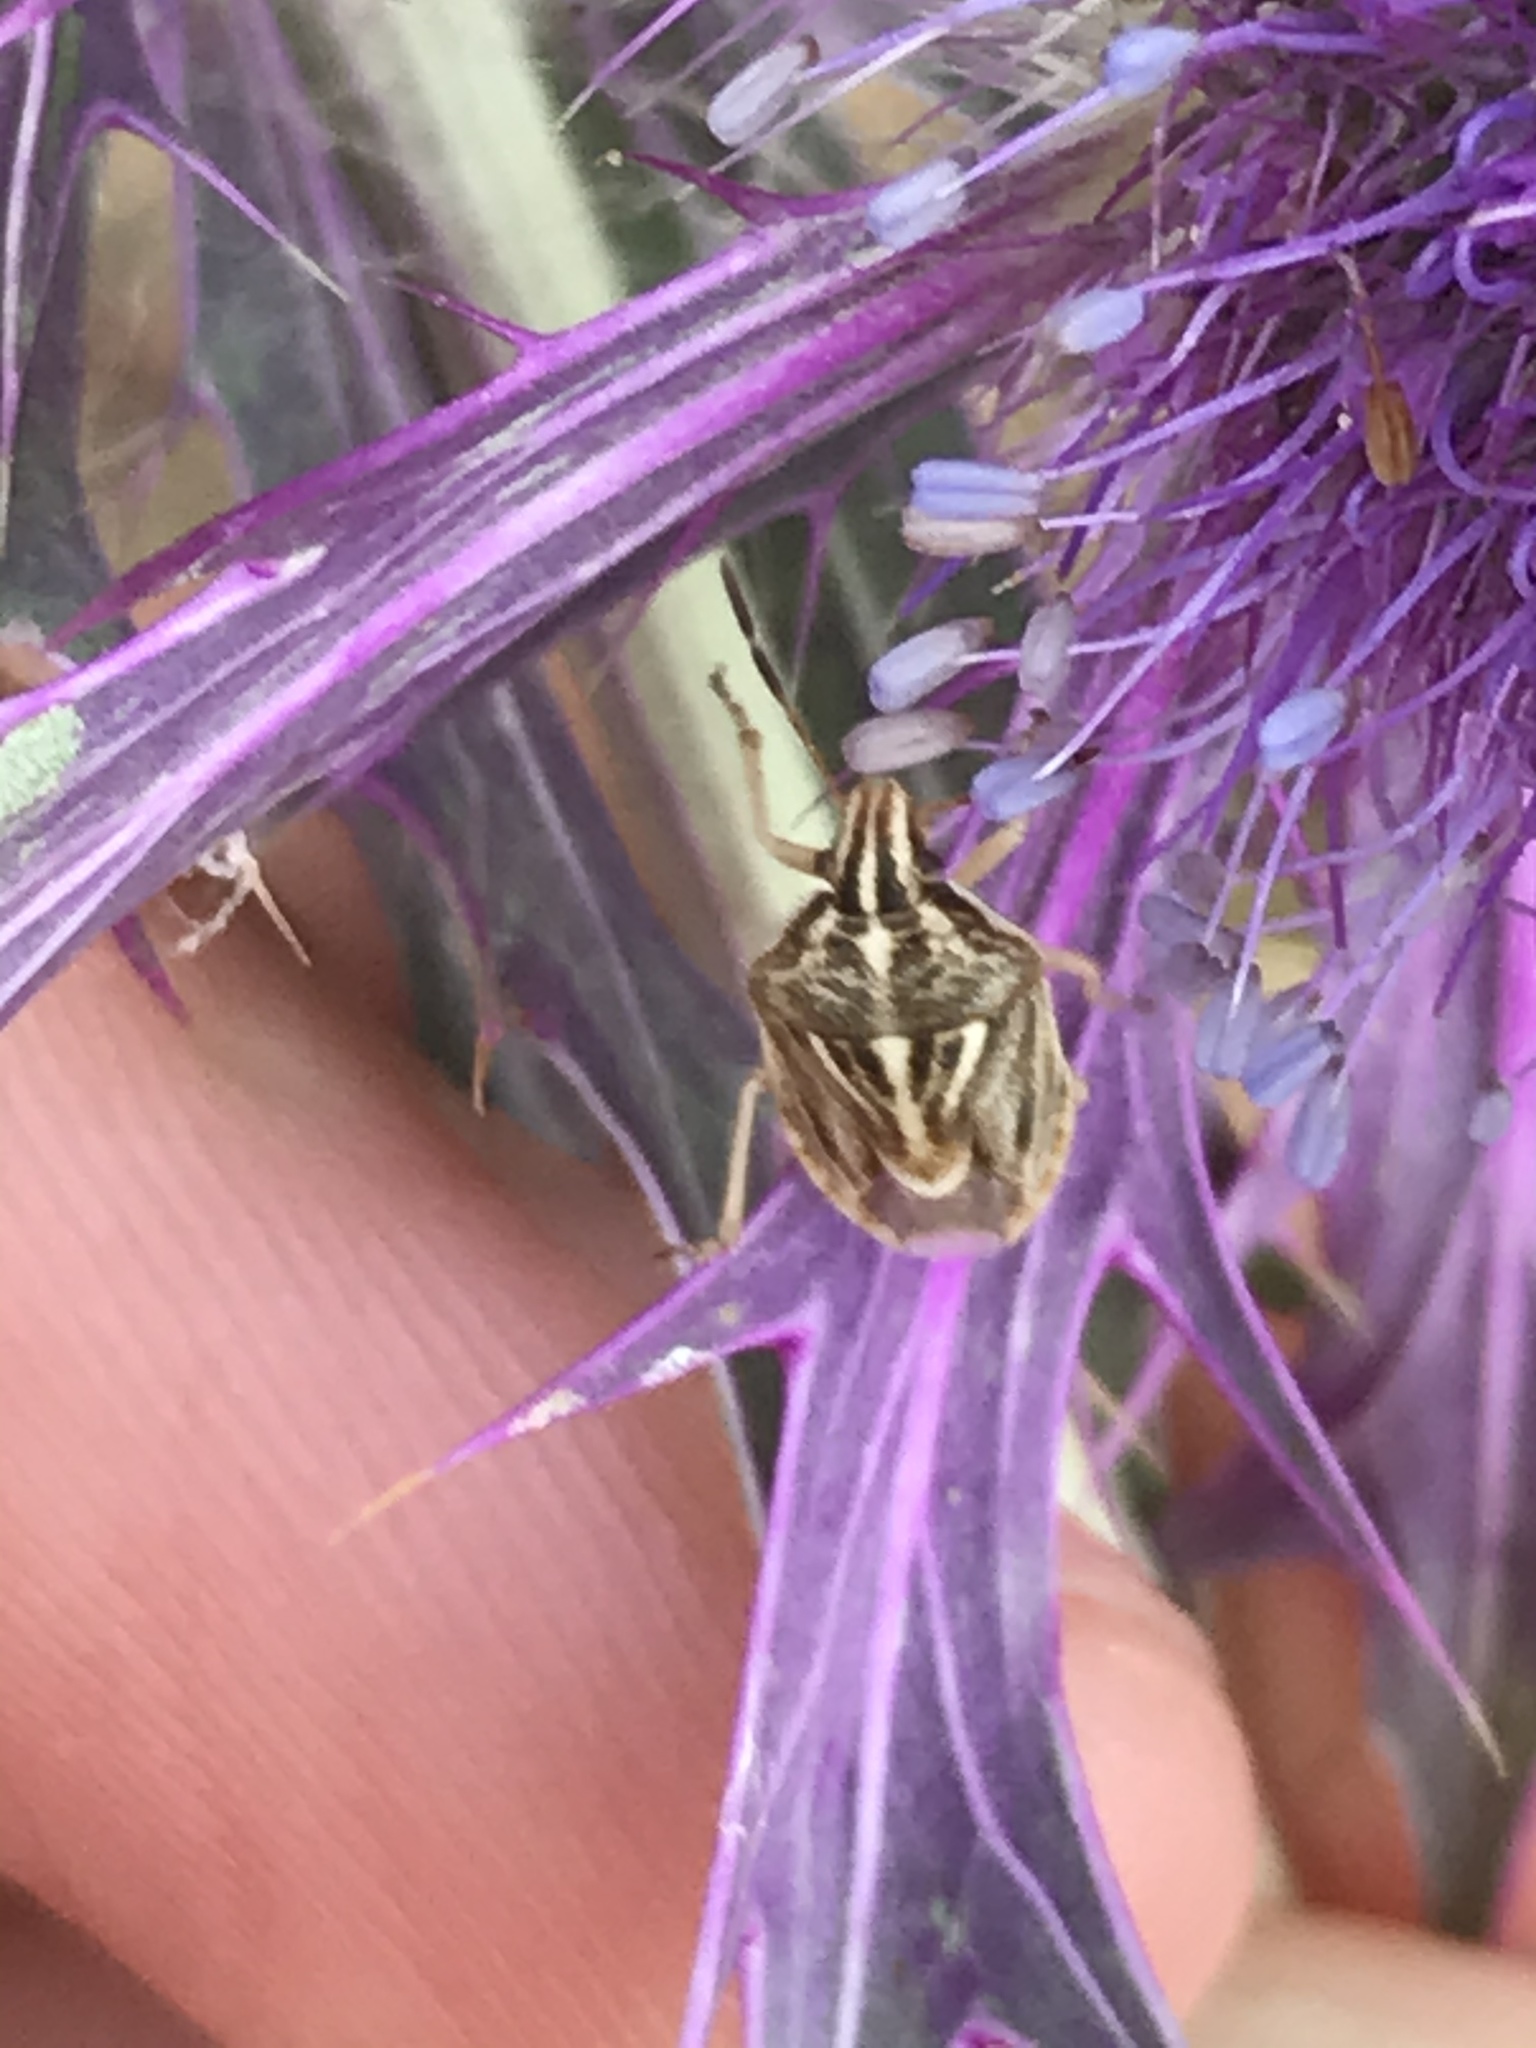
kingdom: Animalia
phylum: Arthropoda
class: Insecta
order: Hemiptera
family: Pentatomidae
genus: Trichopepla
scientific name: Trichopepla semivittata
